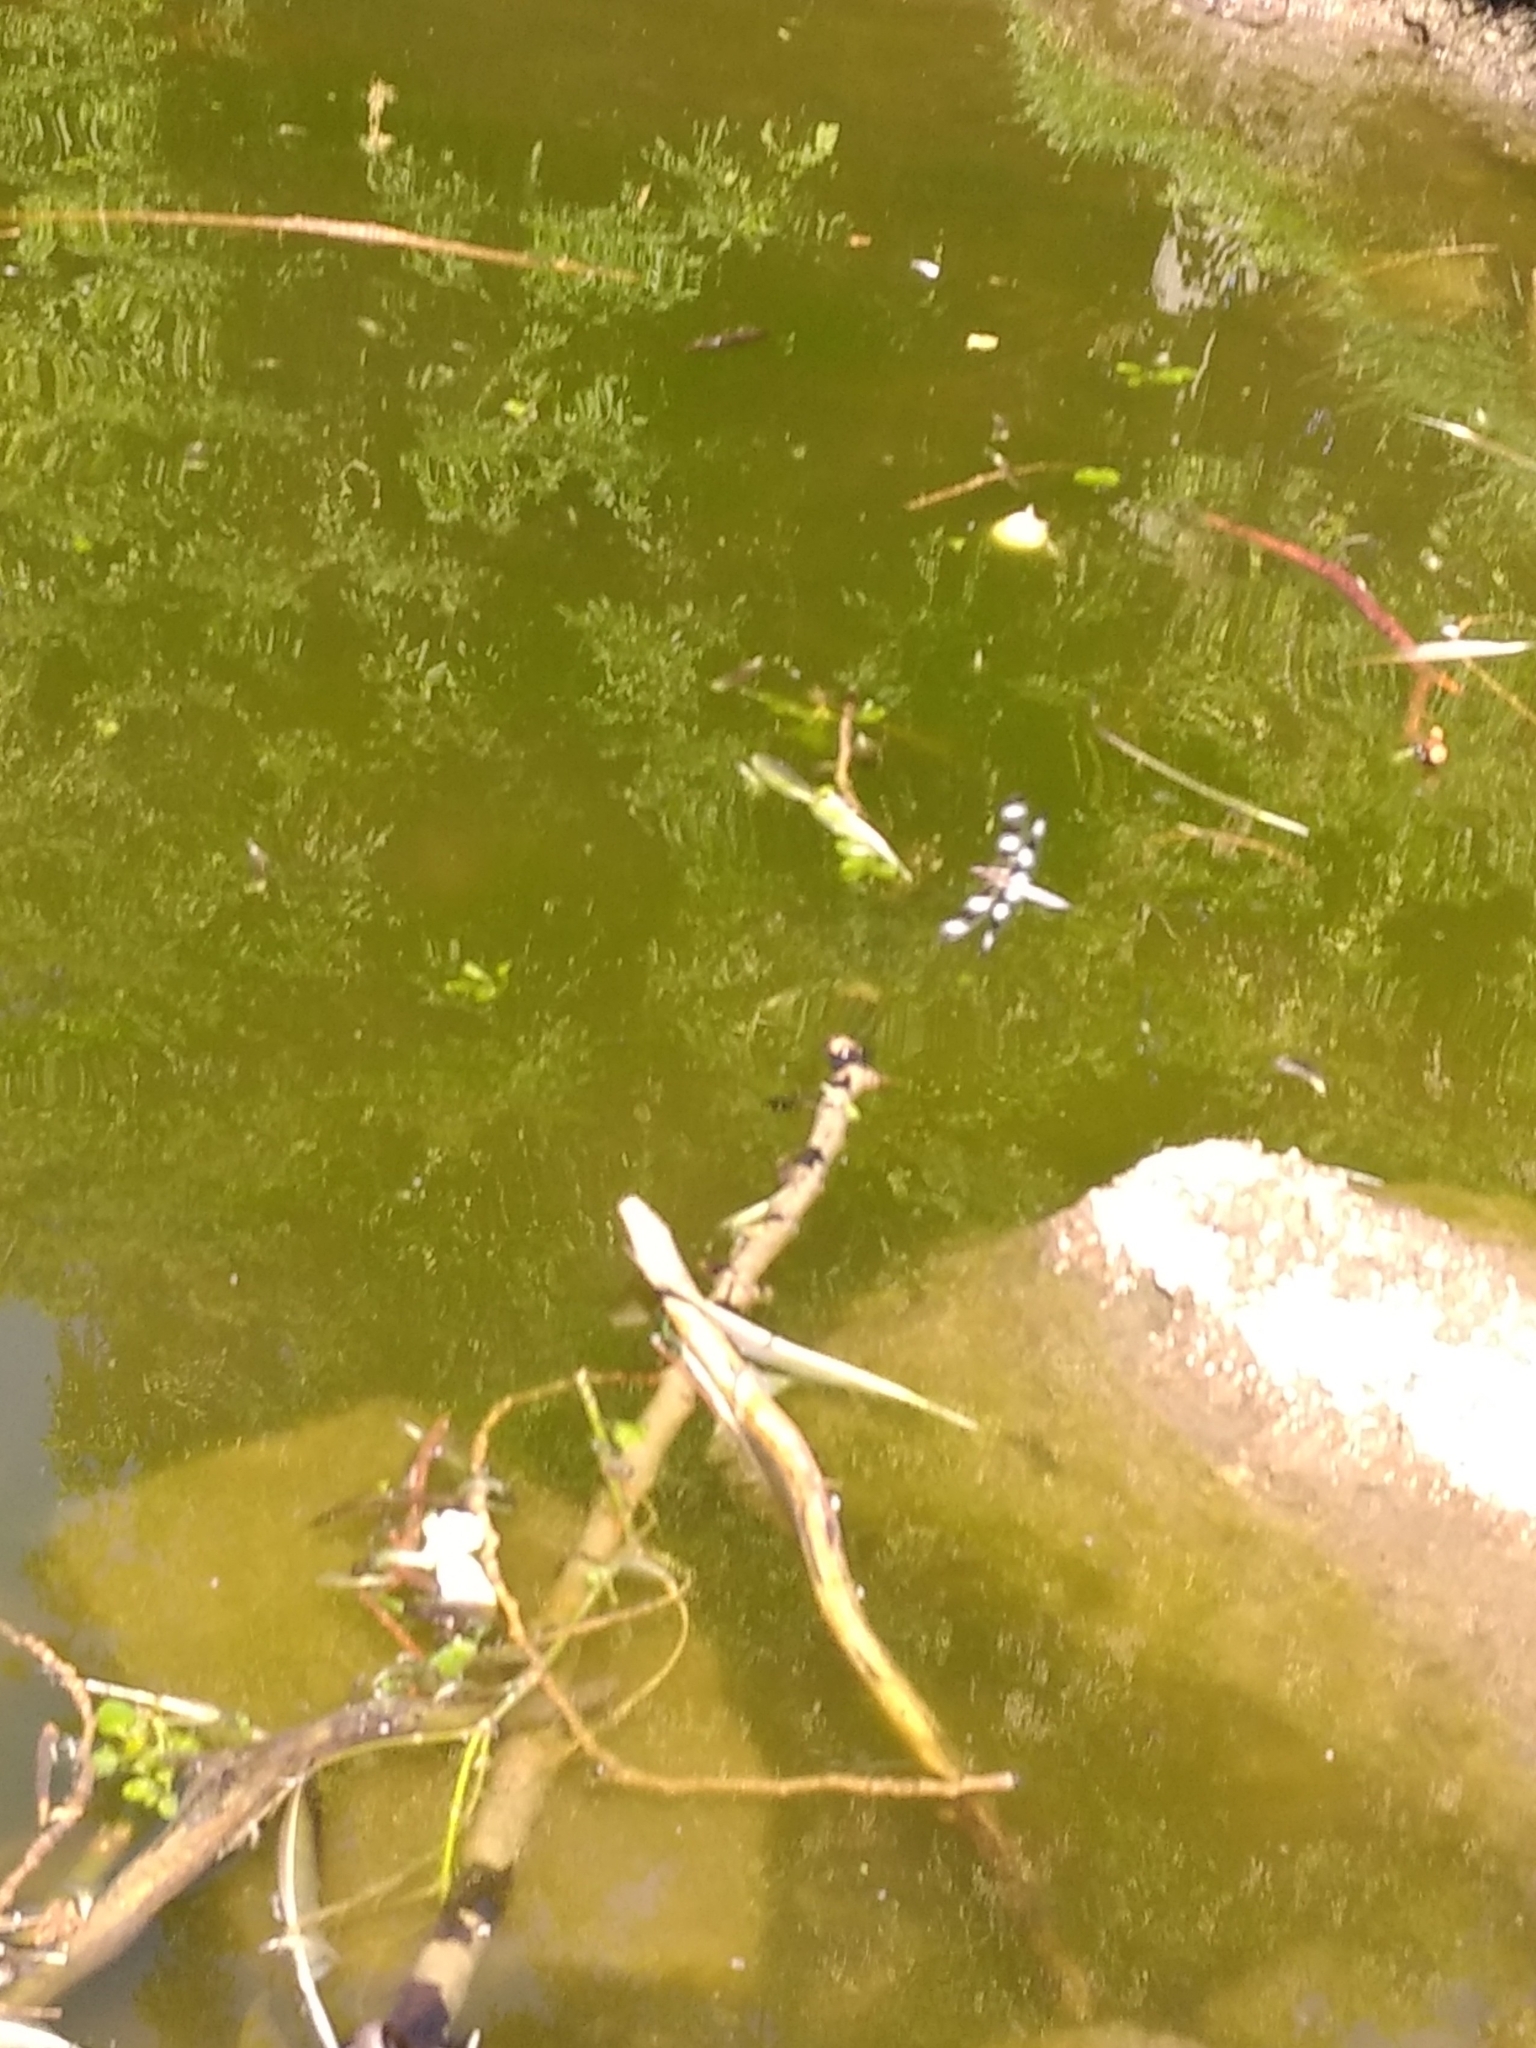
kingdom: Animalia
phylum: Arthropoda
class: Insecta
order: Odonata
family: Libellulidae
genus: Libellula
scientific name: Libellula pulchella
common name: Twelve-spotted skimmer
